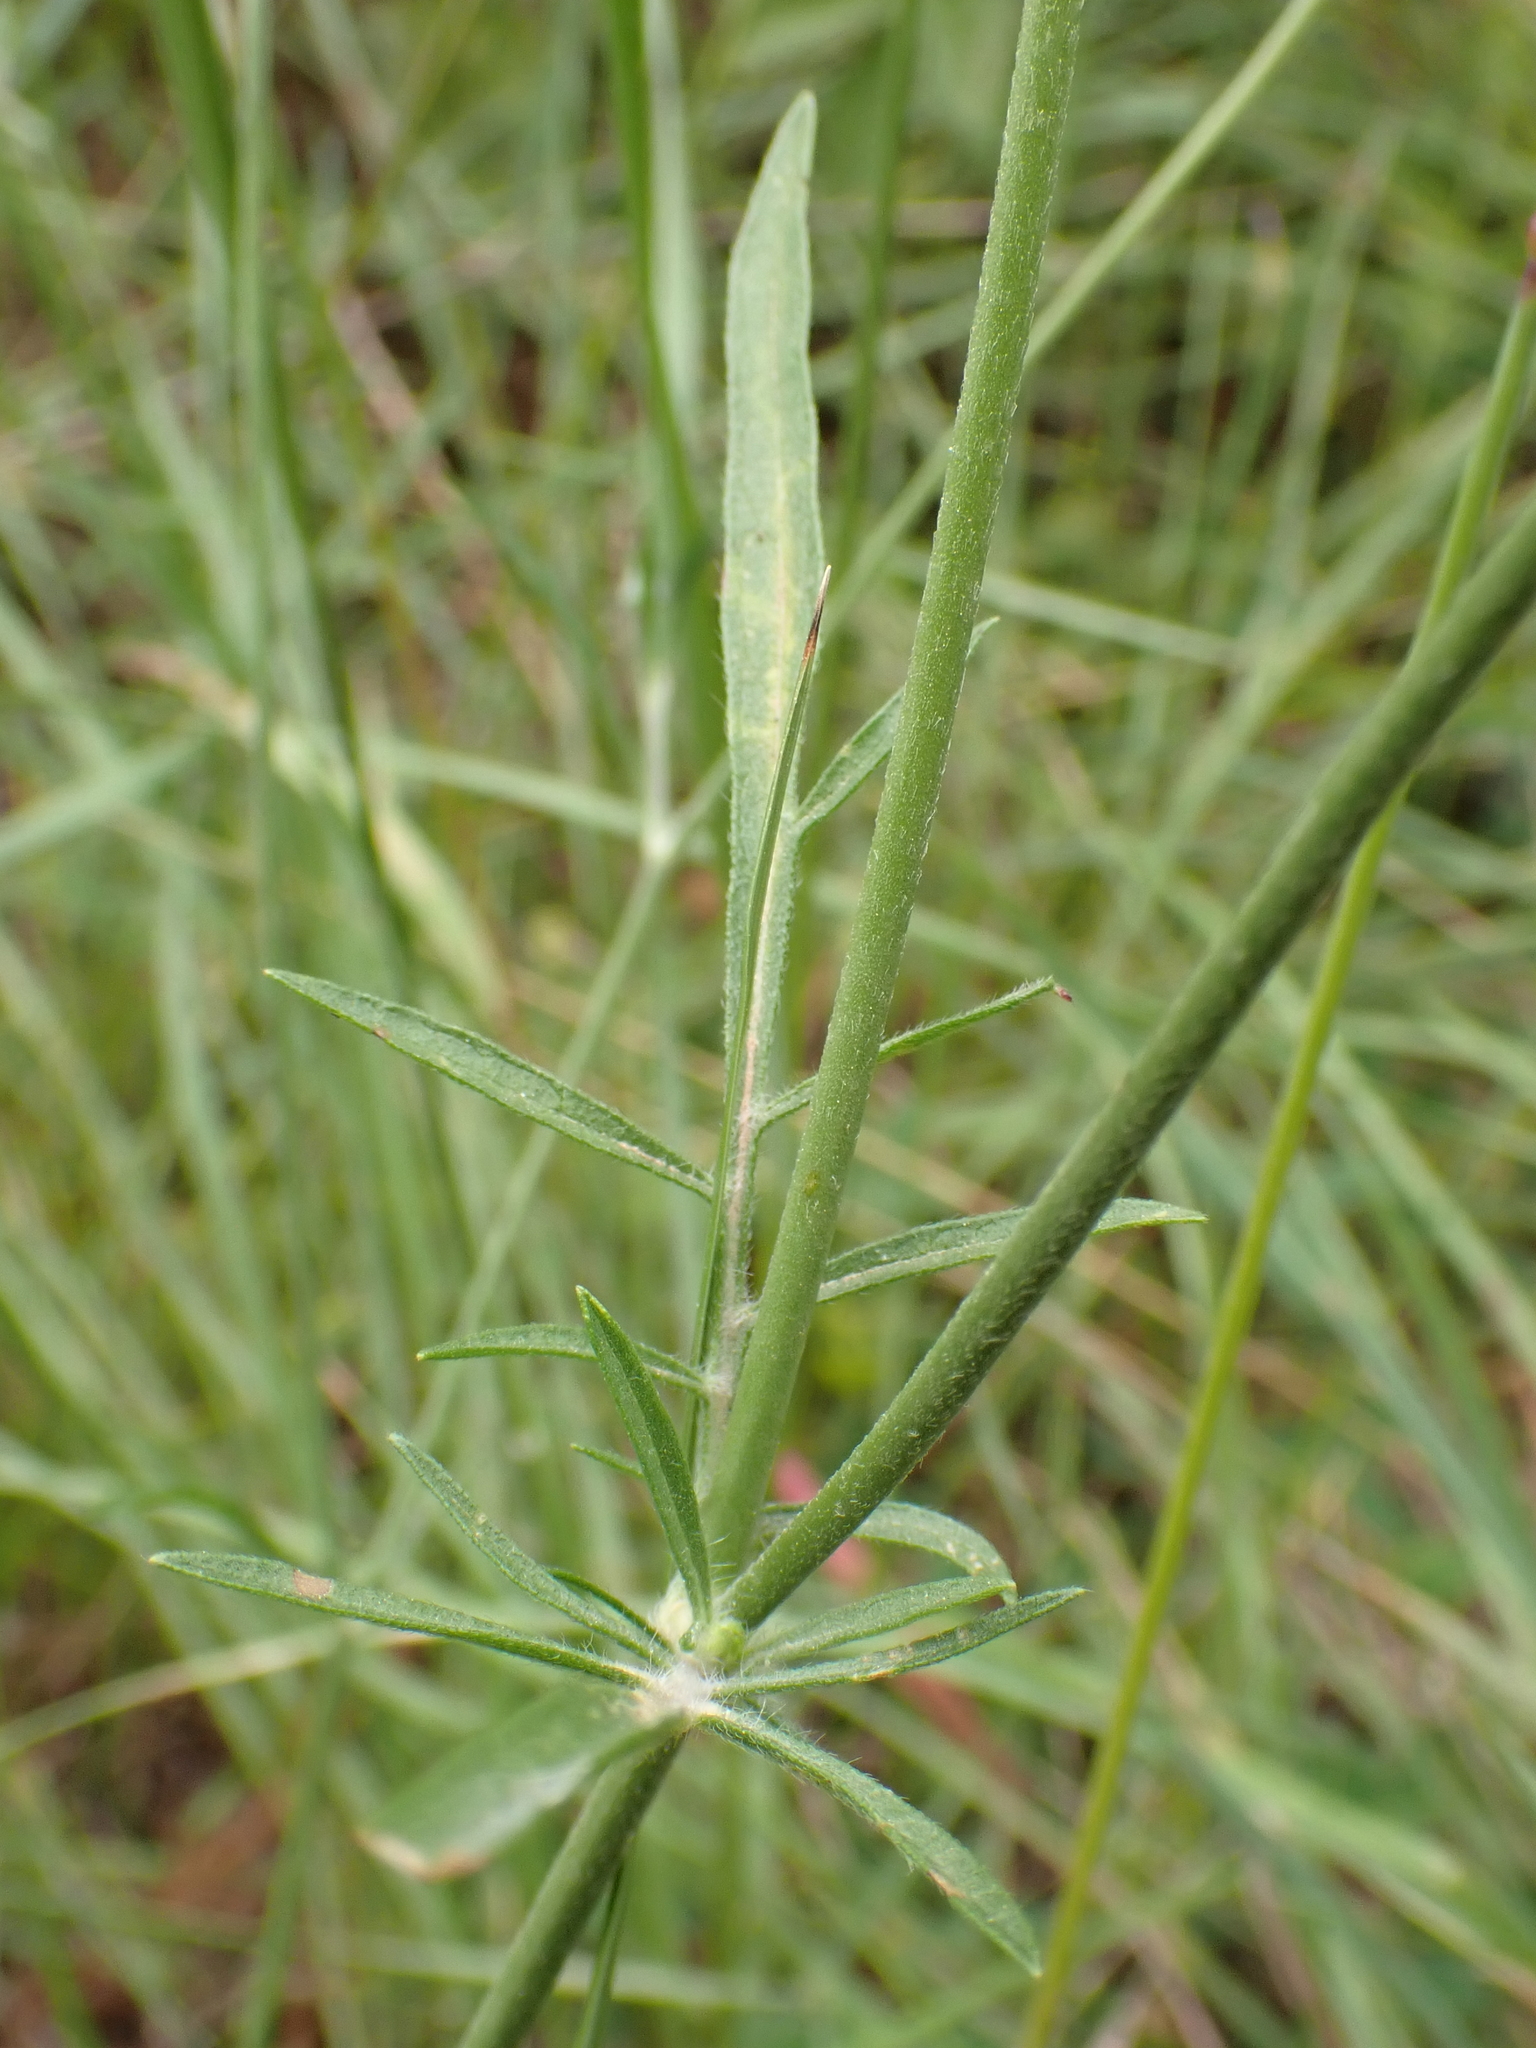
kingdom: Plantae
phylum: Tracheophyta
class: Magnoliopsida
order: Dipsacales
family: Caprifoliaceae
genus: Sixalix
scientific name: Sixalix atropurpurea
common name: Sweet scabious
